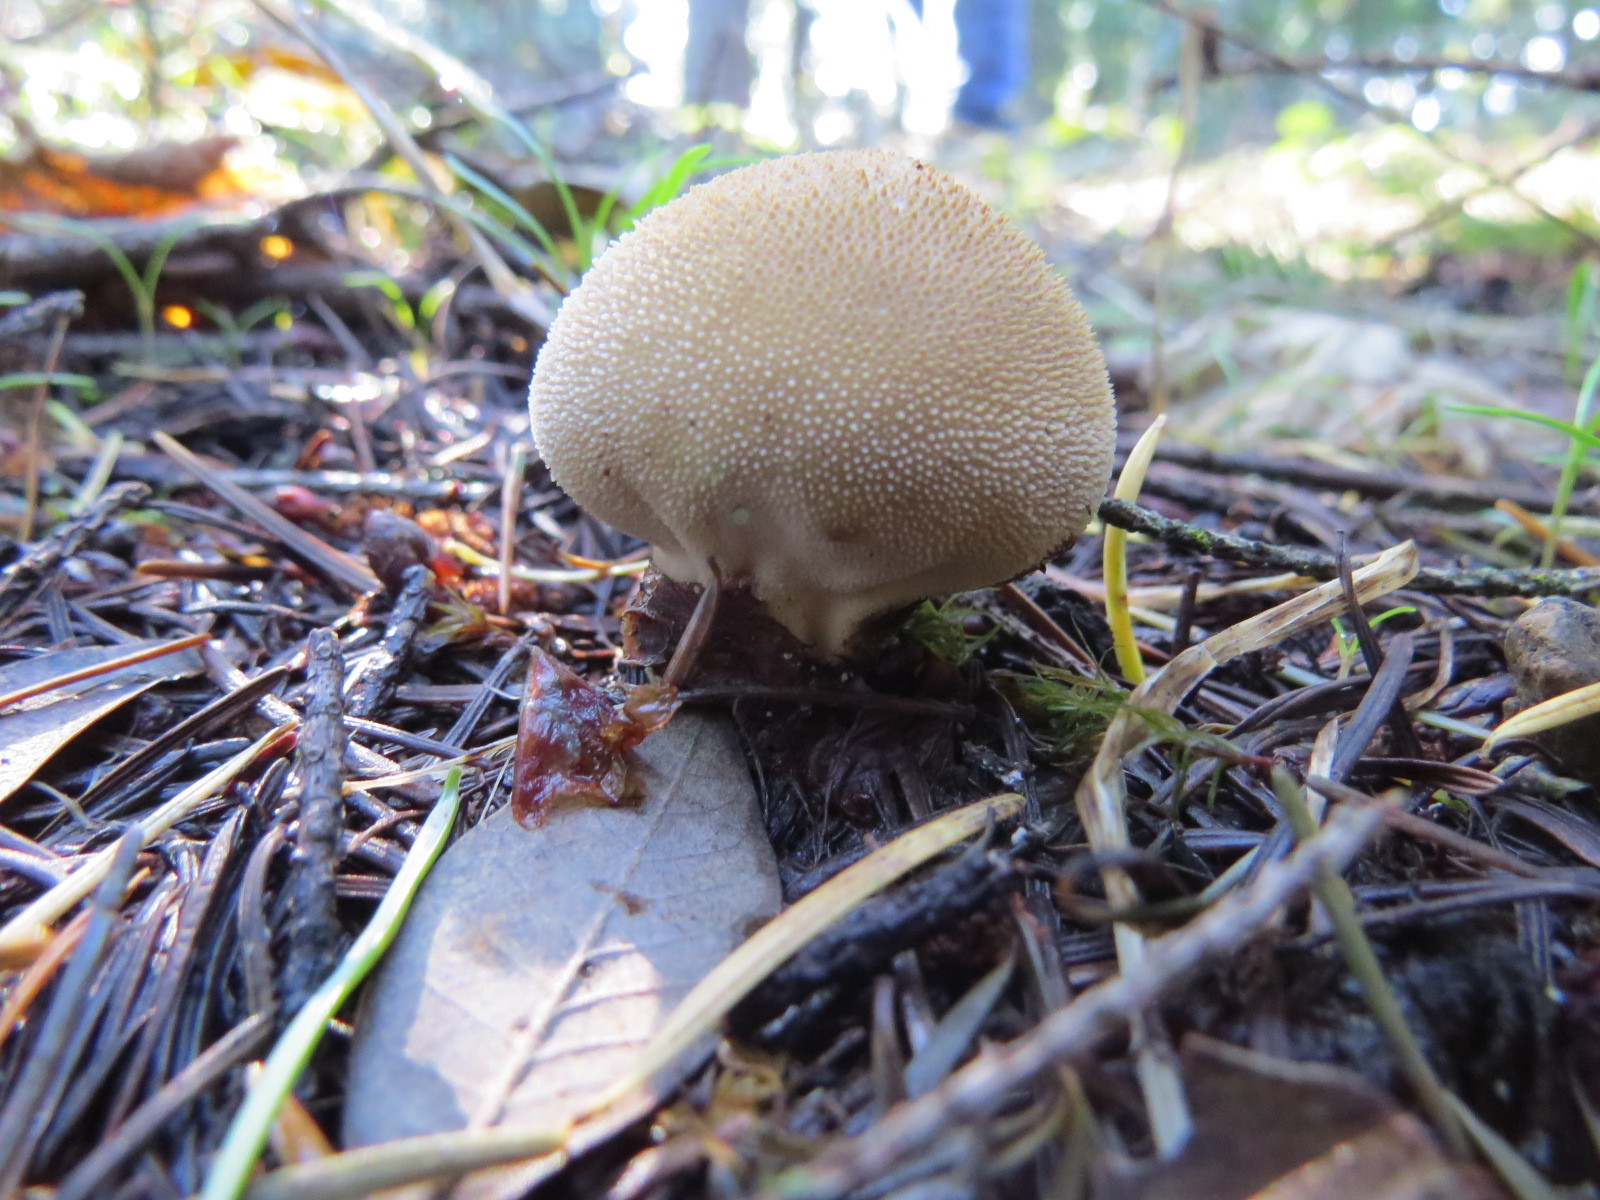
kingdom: Fungi
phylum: Basidiomycota
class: Agaricomycetes
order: Agaricales
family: Lycoperdaceae
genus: Lycoperdon
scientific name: Lycoperdon perlatum
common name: Common puffball
